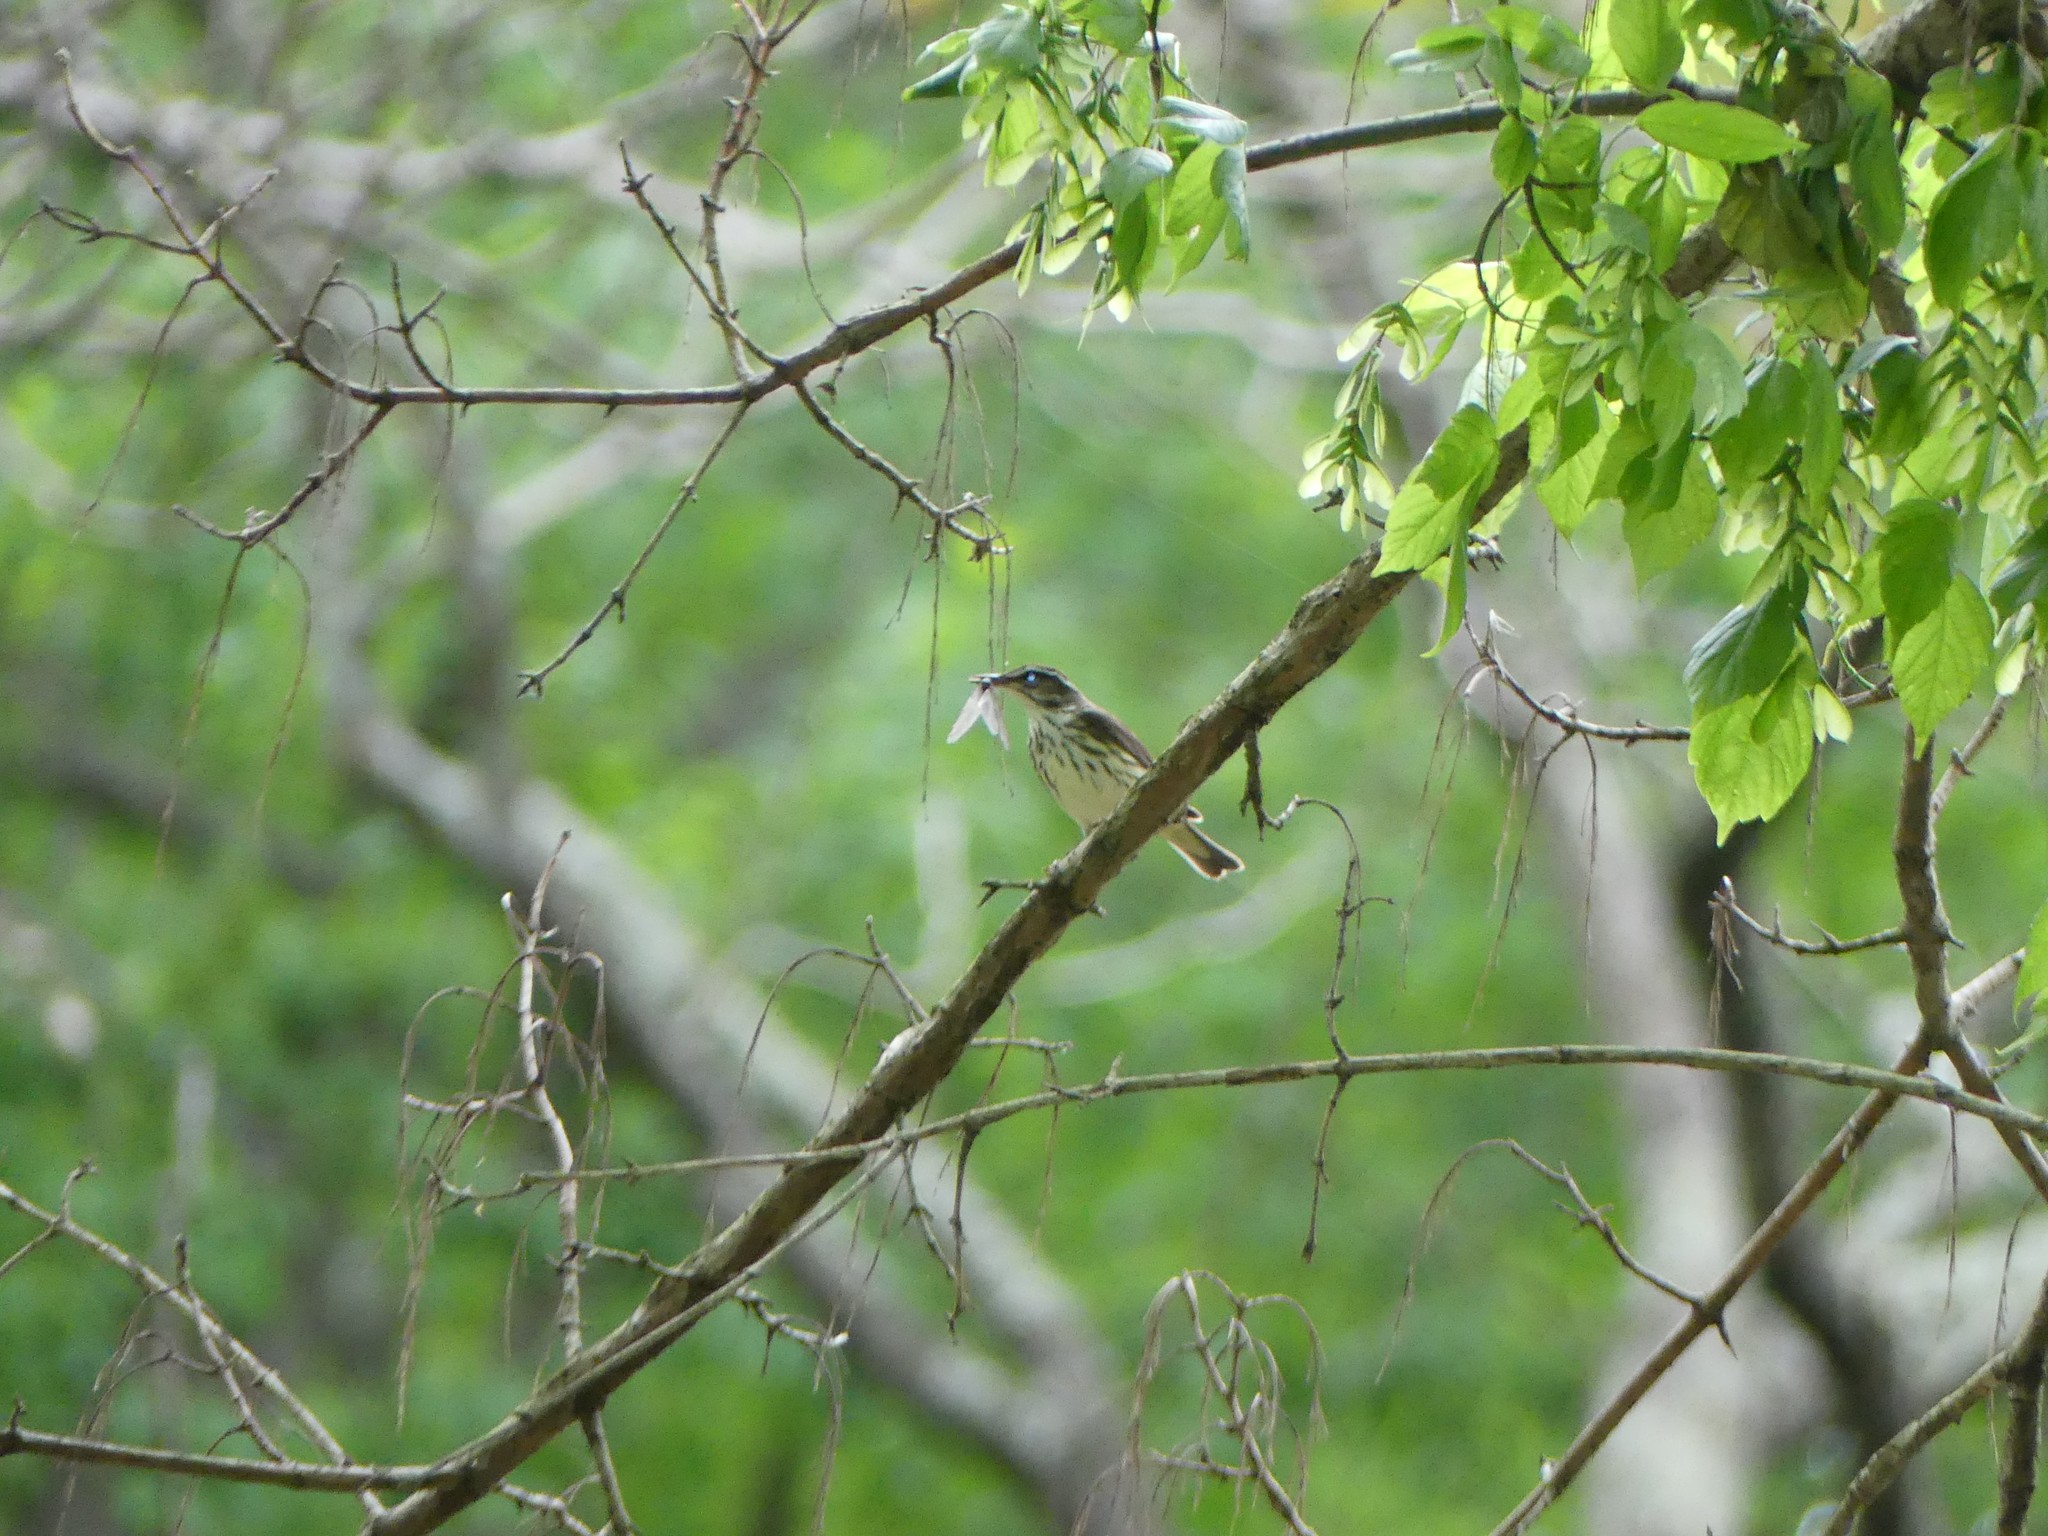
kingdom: Animalia
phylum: Chordata
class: Aves
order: Passeriformes
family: Parulidae
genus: Parkesia
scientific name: Parkesia motacilla
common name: Louisiana waterthrush
